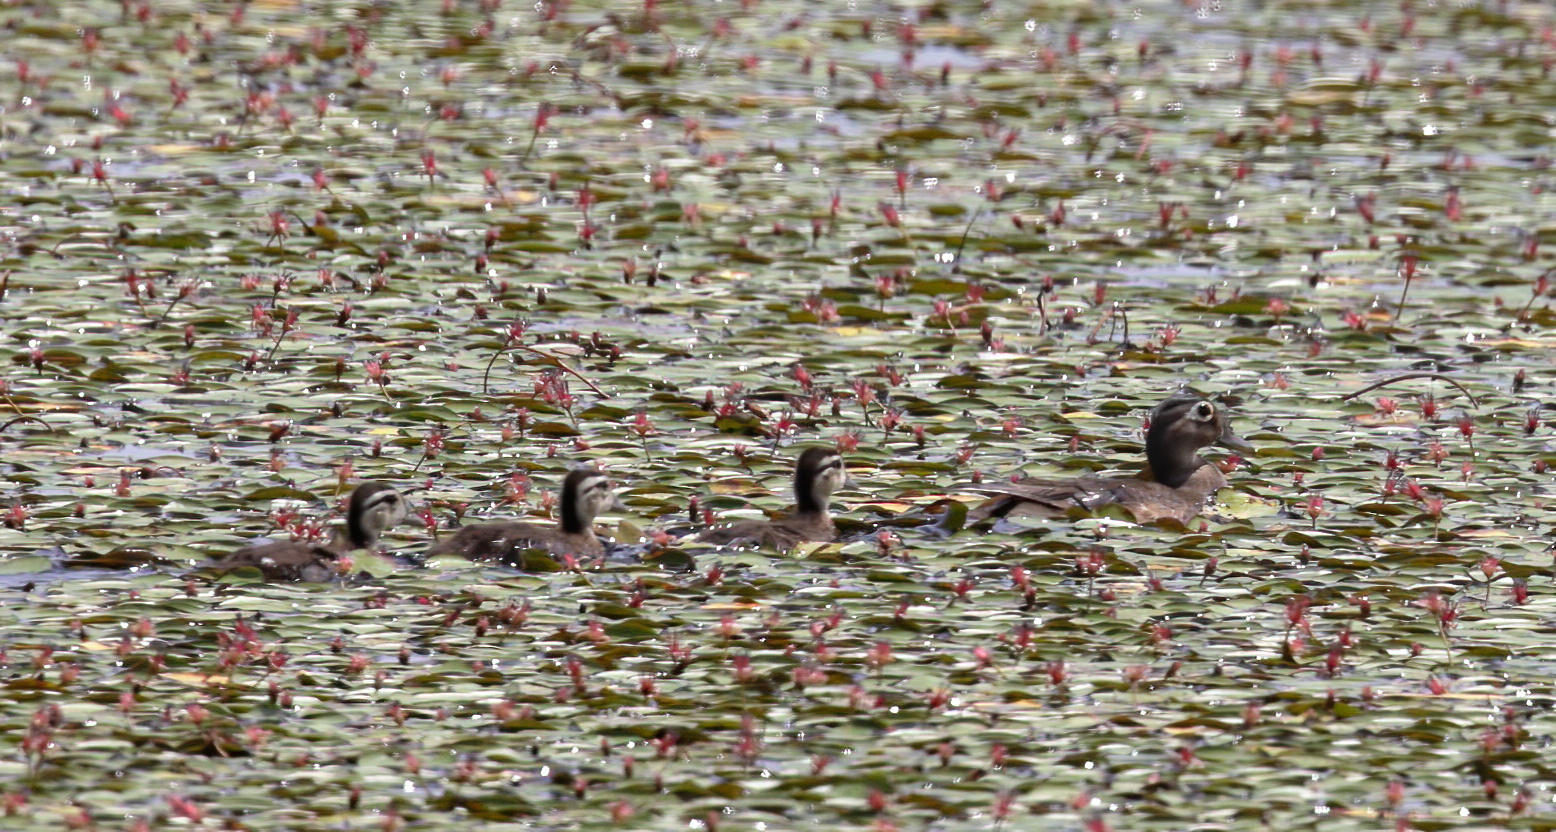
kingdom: Animalia
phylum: Chordata
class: Aves
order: Anseriformes
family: Anatidae
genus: Aix
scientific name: Aix sponsa
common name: Wood duck
